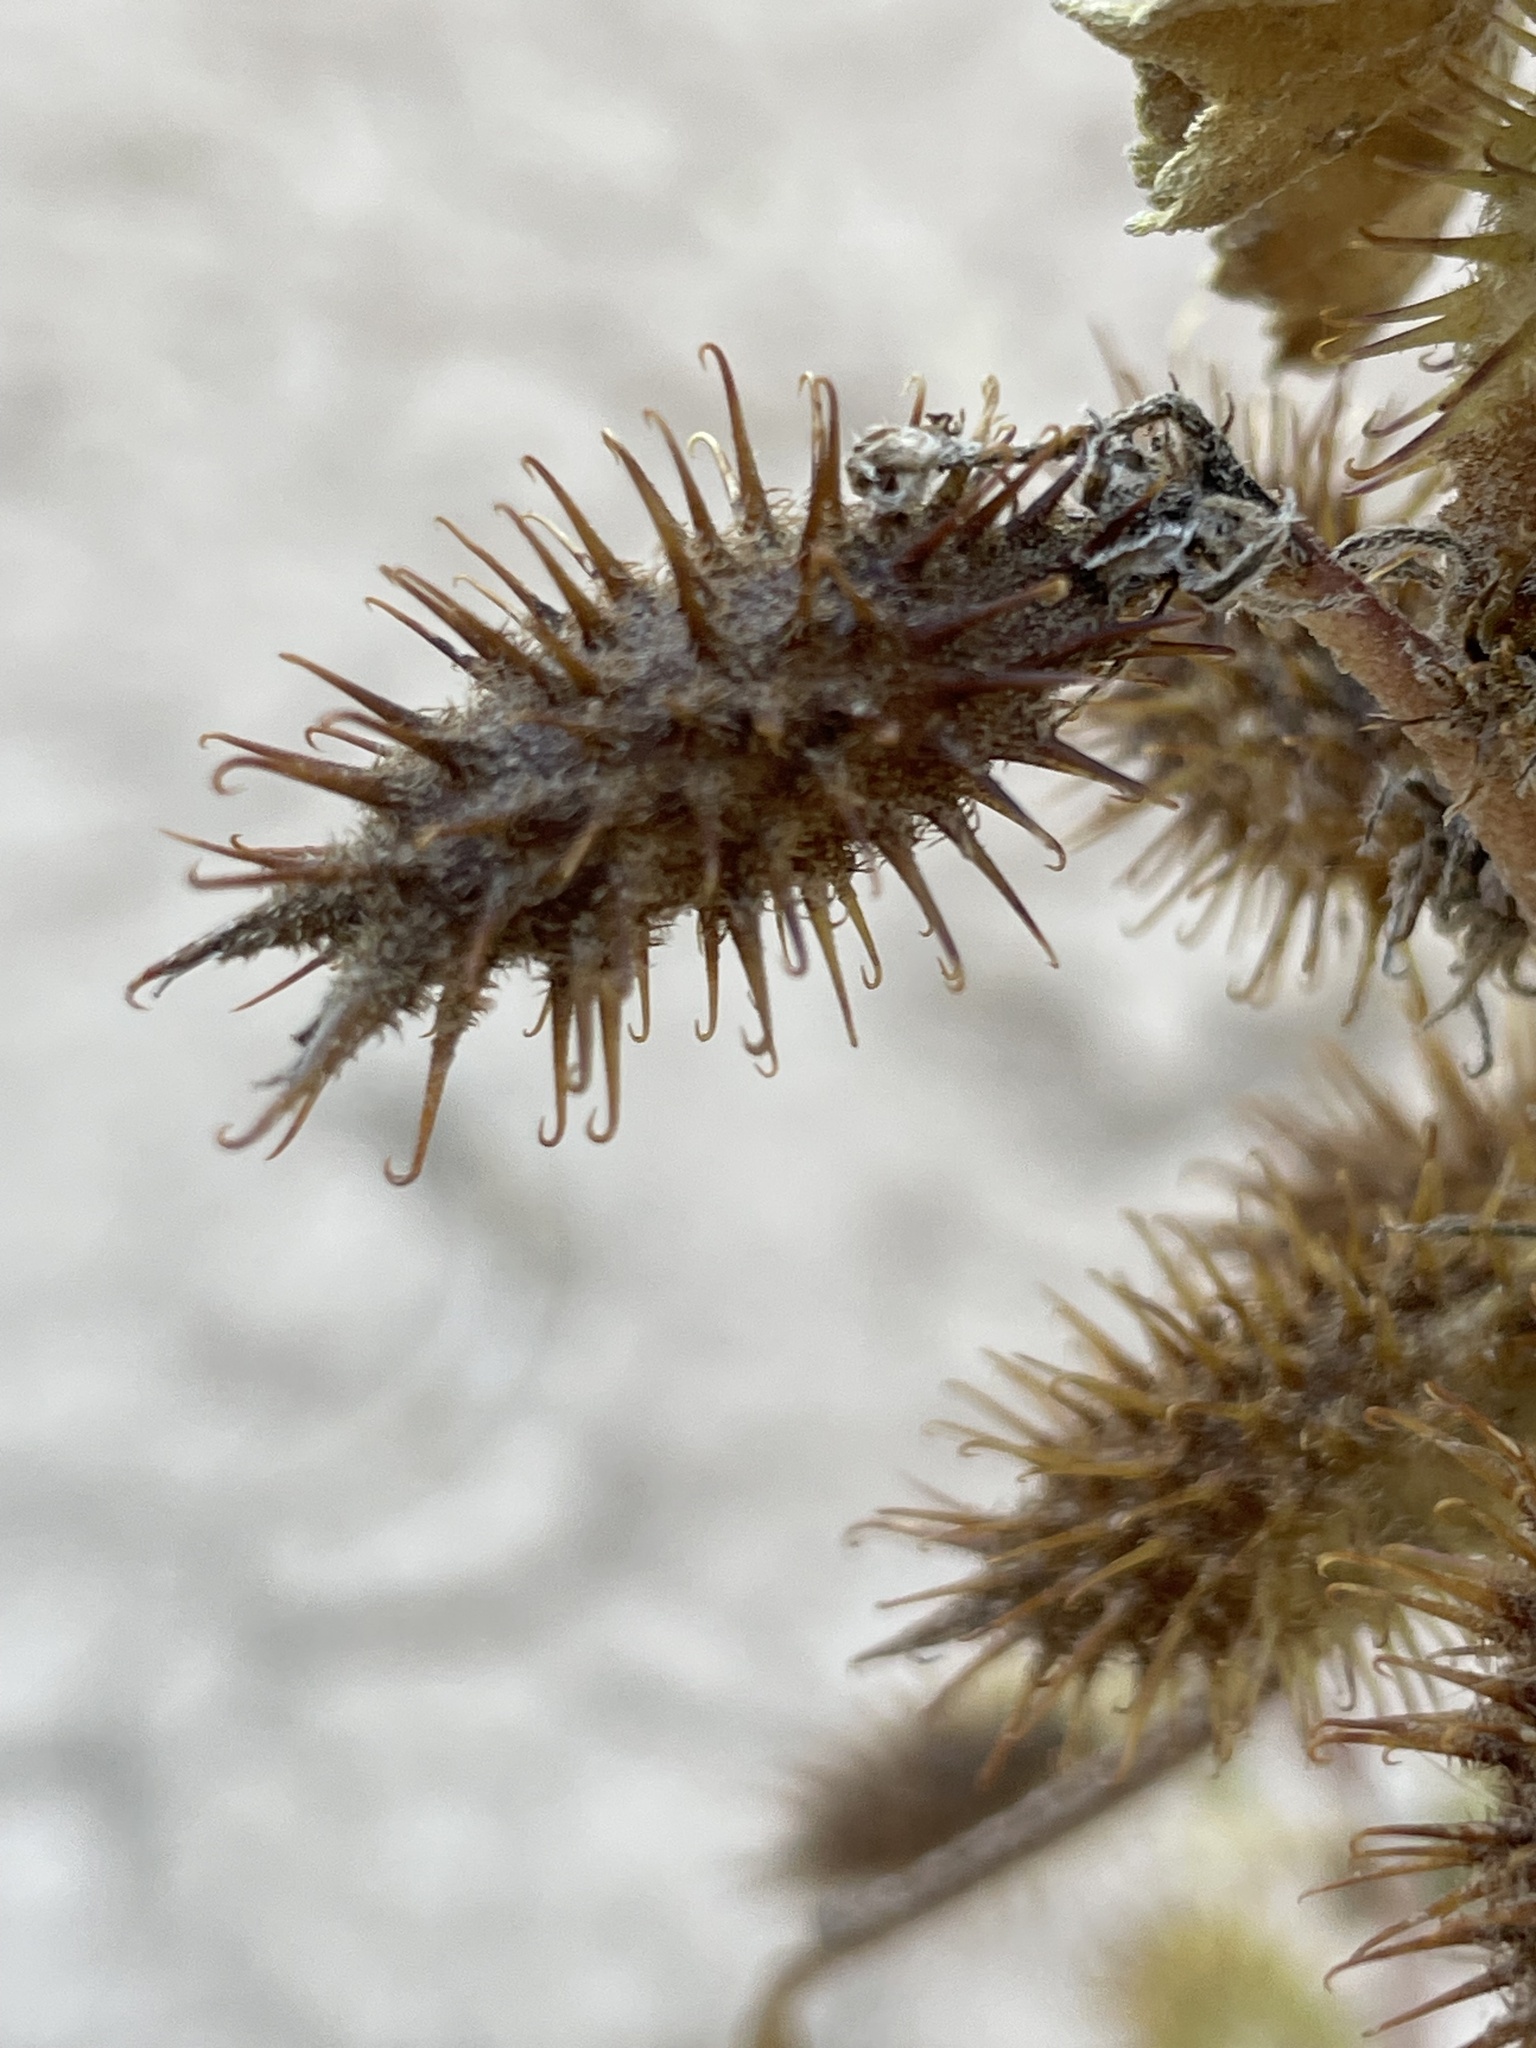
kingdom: Plantae
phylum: Tracheophyta
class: Magnoliopsida
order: Asterales
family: Asteraceae
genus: Xanthium
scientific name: Xanthium strumarium
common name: Rough cocklebur
